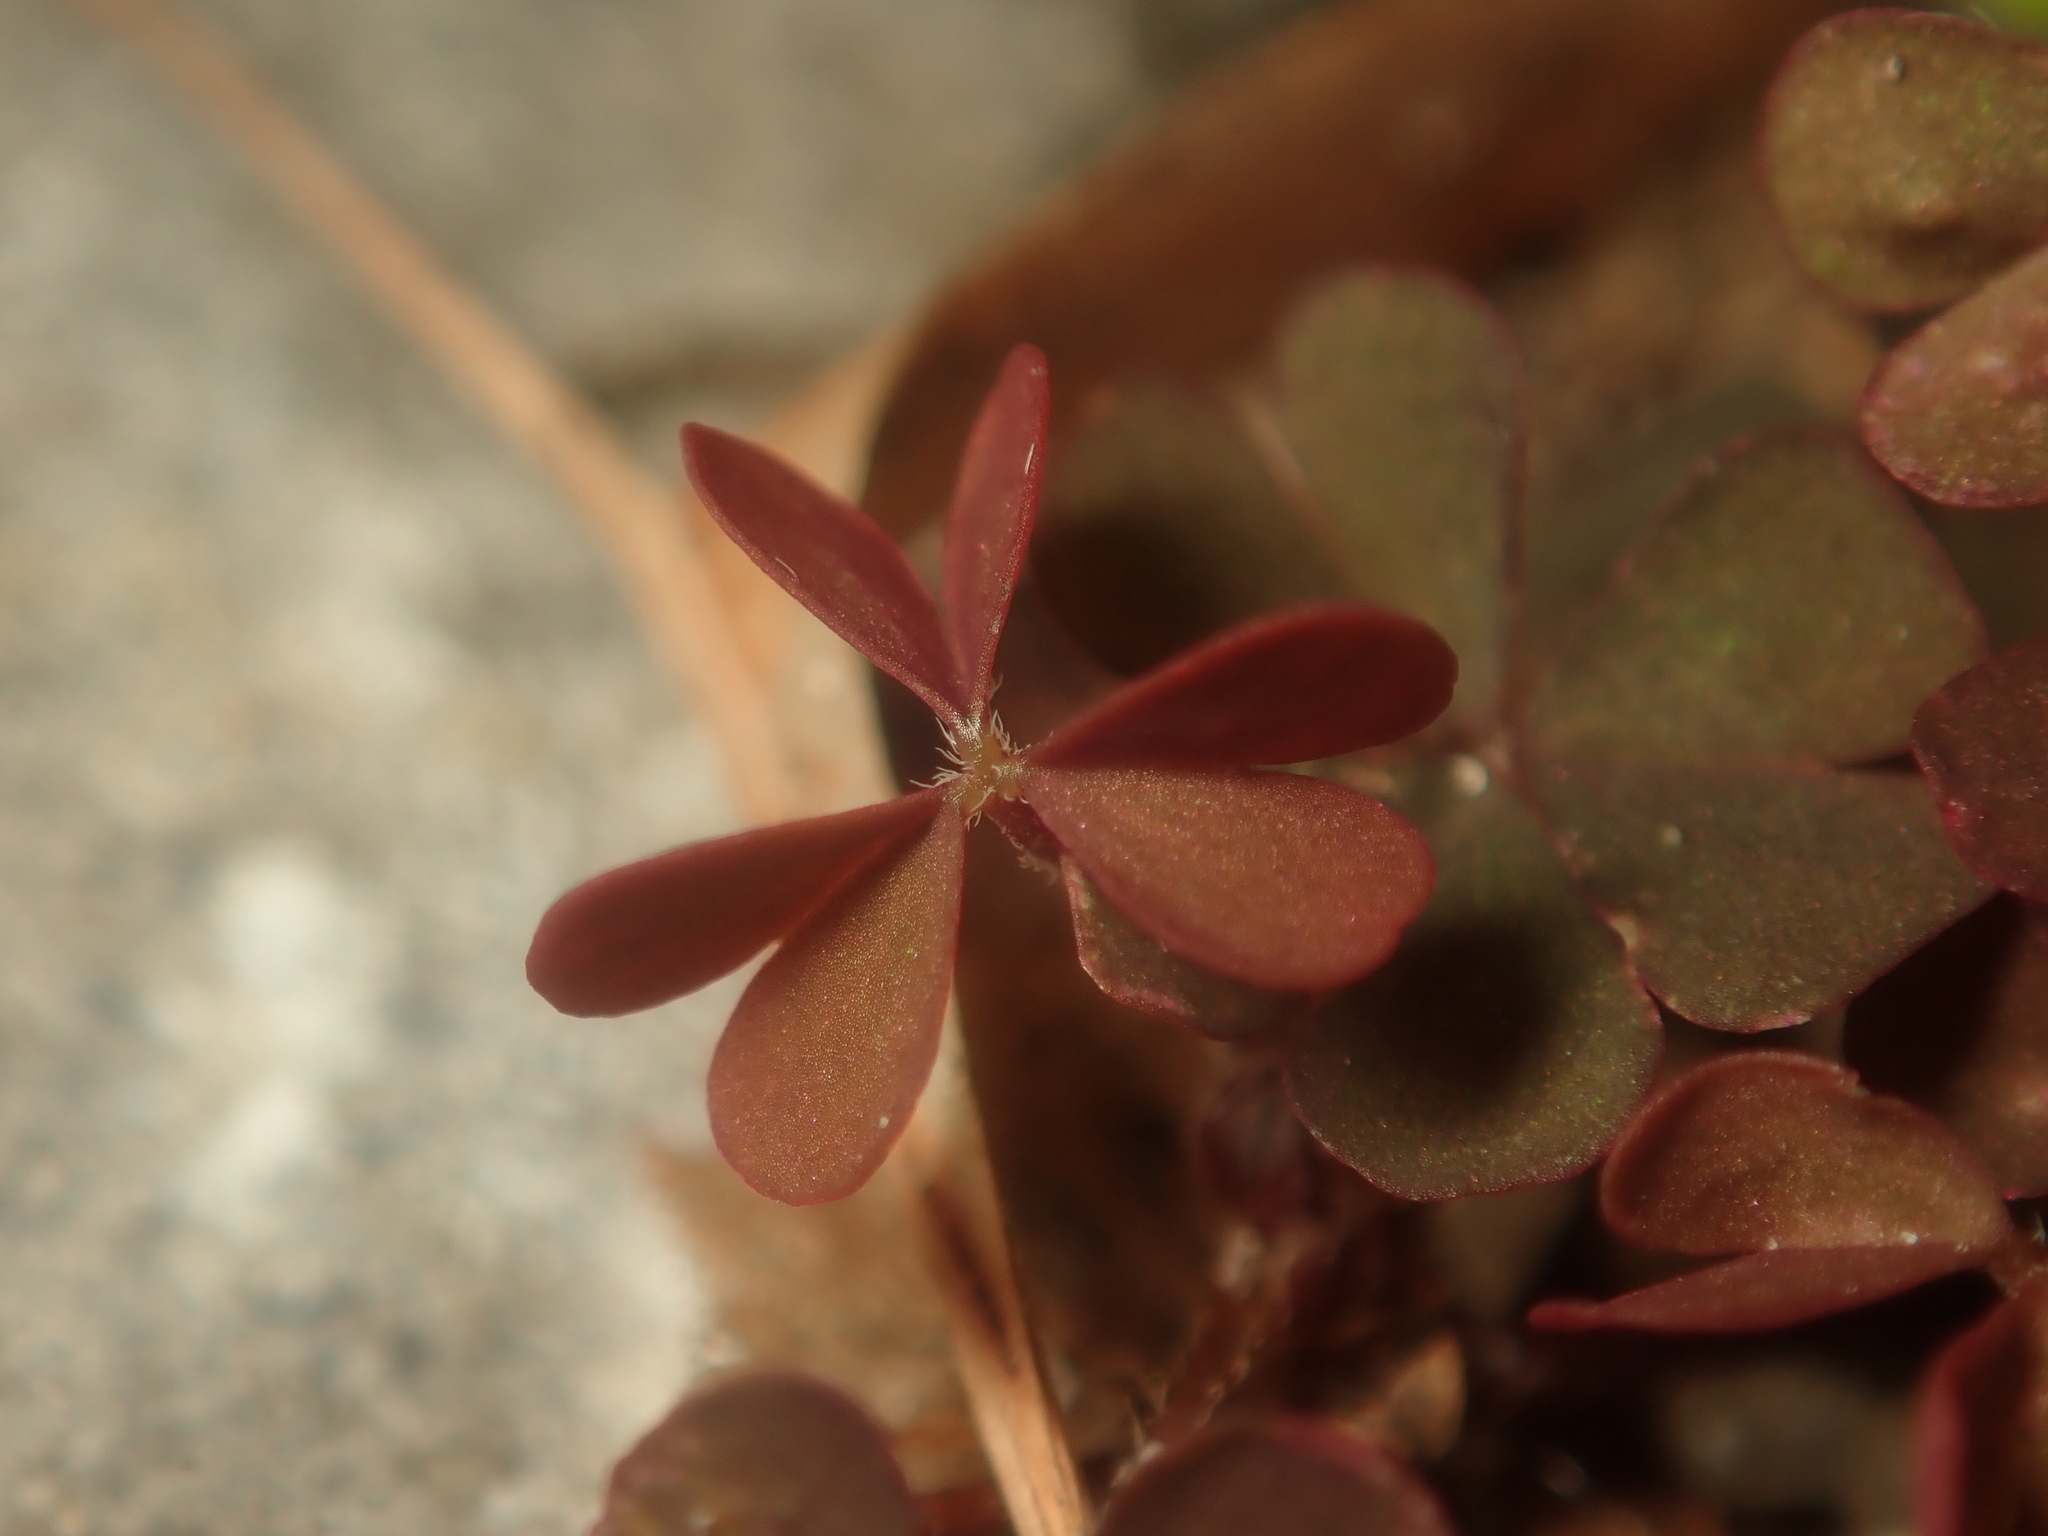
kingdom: Plantae
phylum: Tracheophyta
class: Magnoliopsida
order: Oxalidales
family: Oxalidaceae
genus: Oxalis
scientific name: Oxalis corniculata
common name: Procumbent yellow-sorrel
